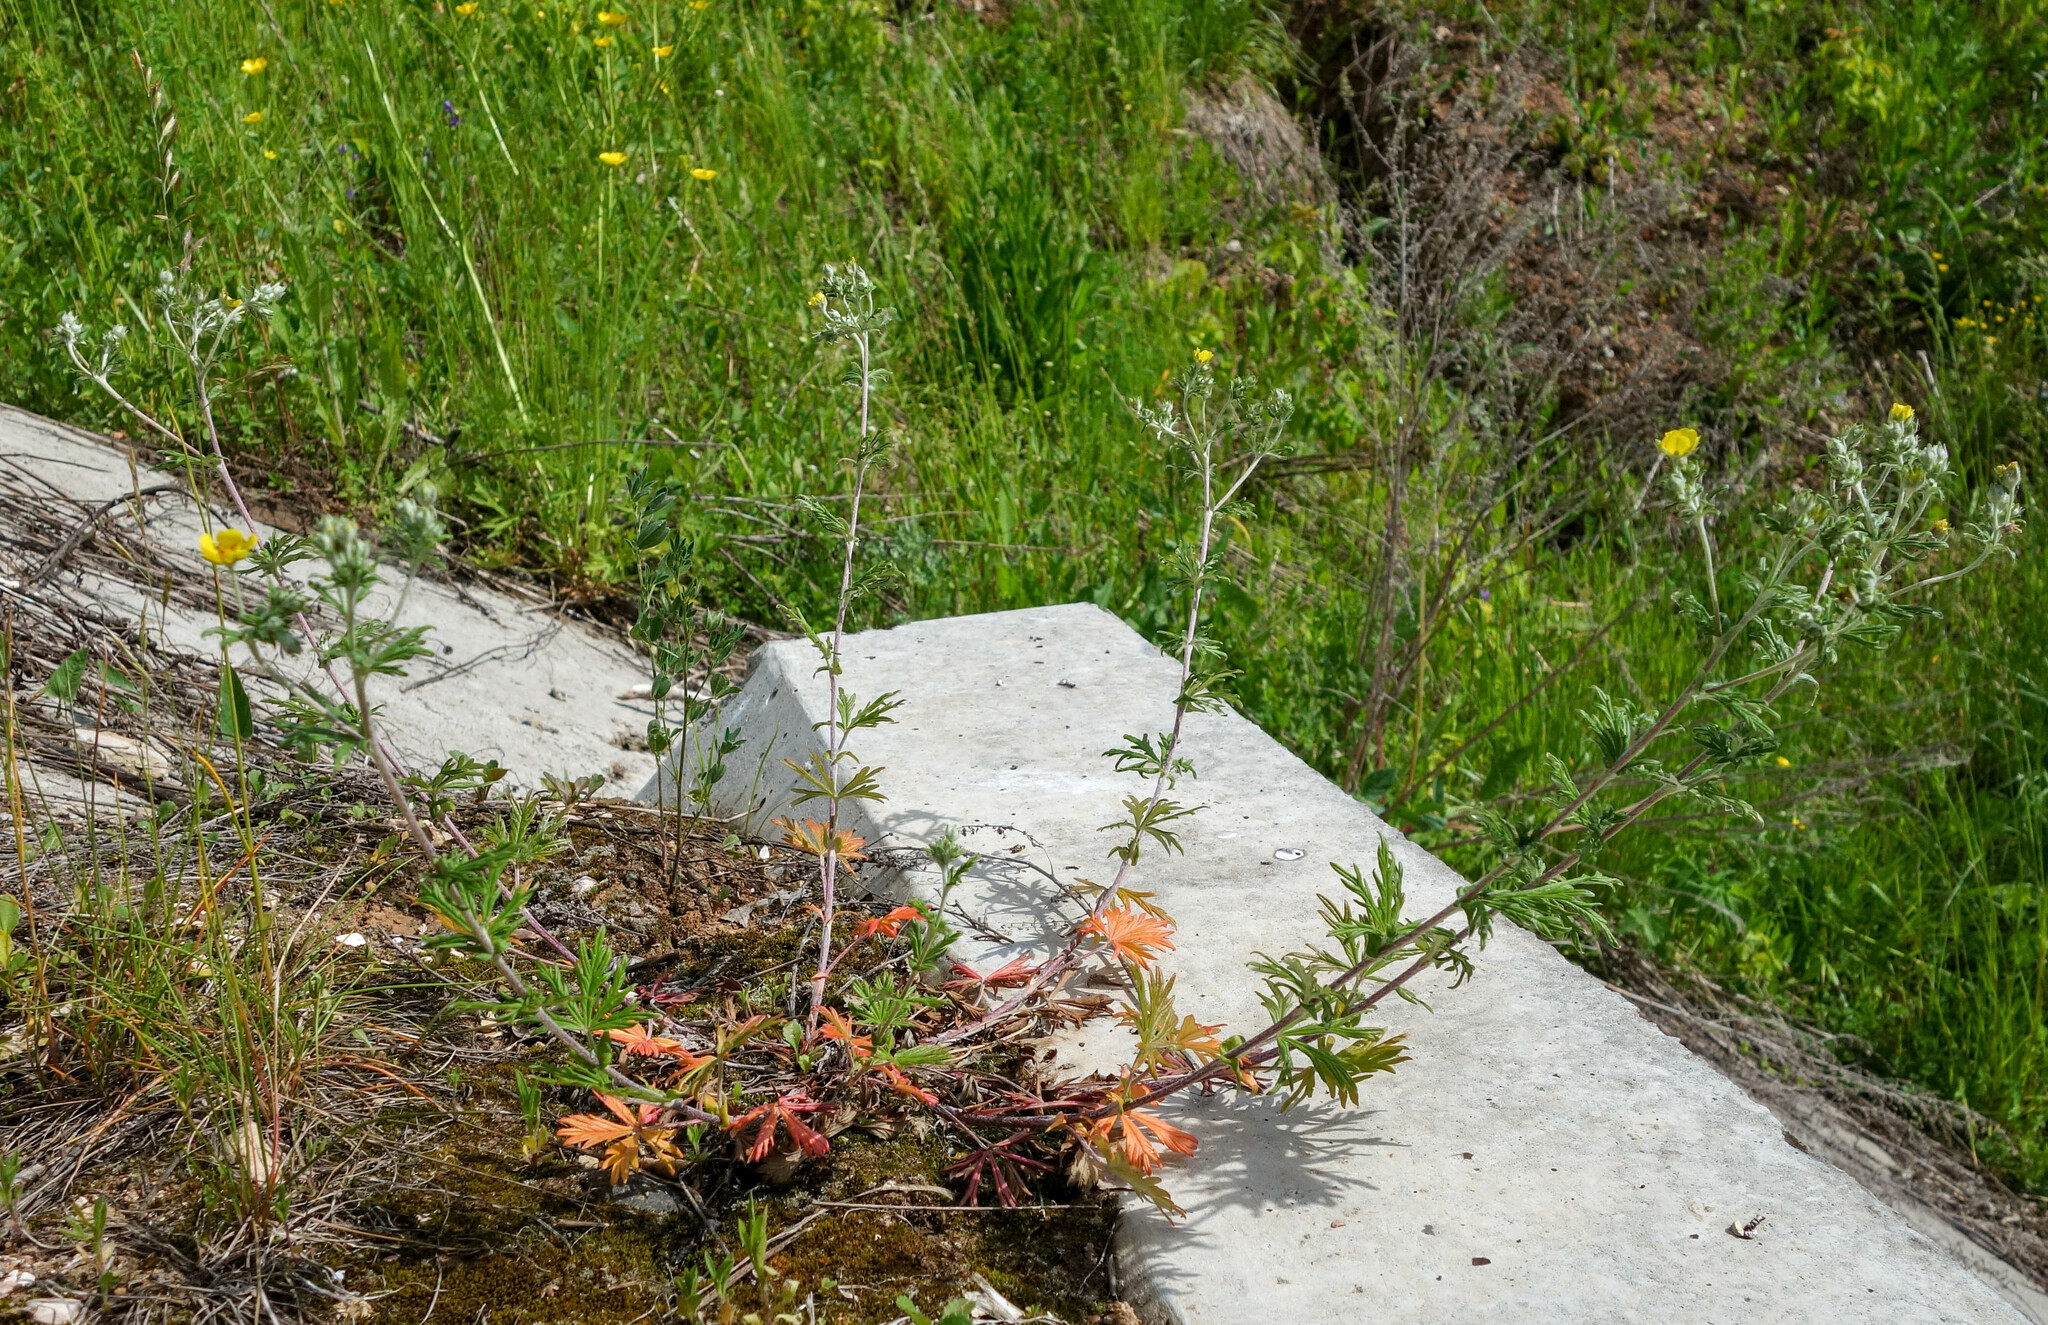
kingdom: Plantae
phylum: Tracheophyta
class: Magnoliopsida
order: Rosales
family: Rosaceae
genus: Potentilla
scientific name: Potentilla argentea
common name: Hoary cinquefoil
